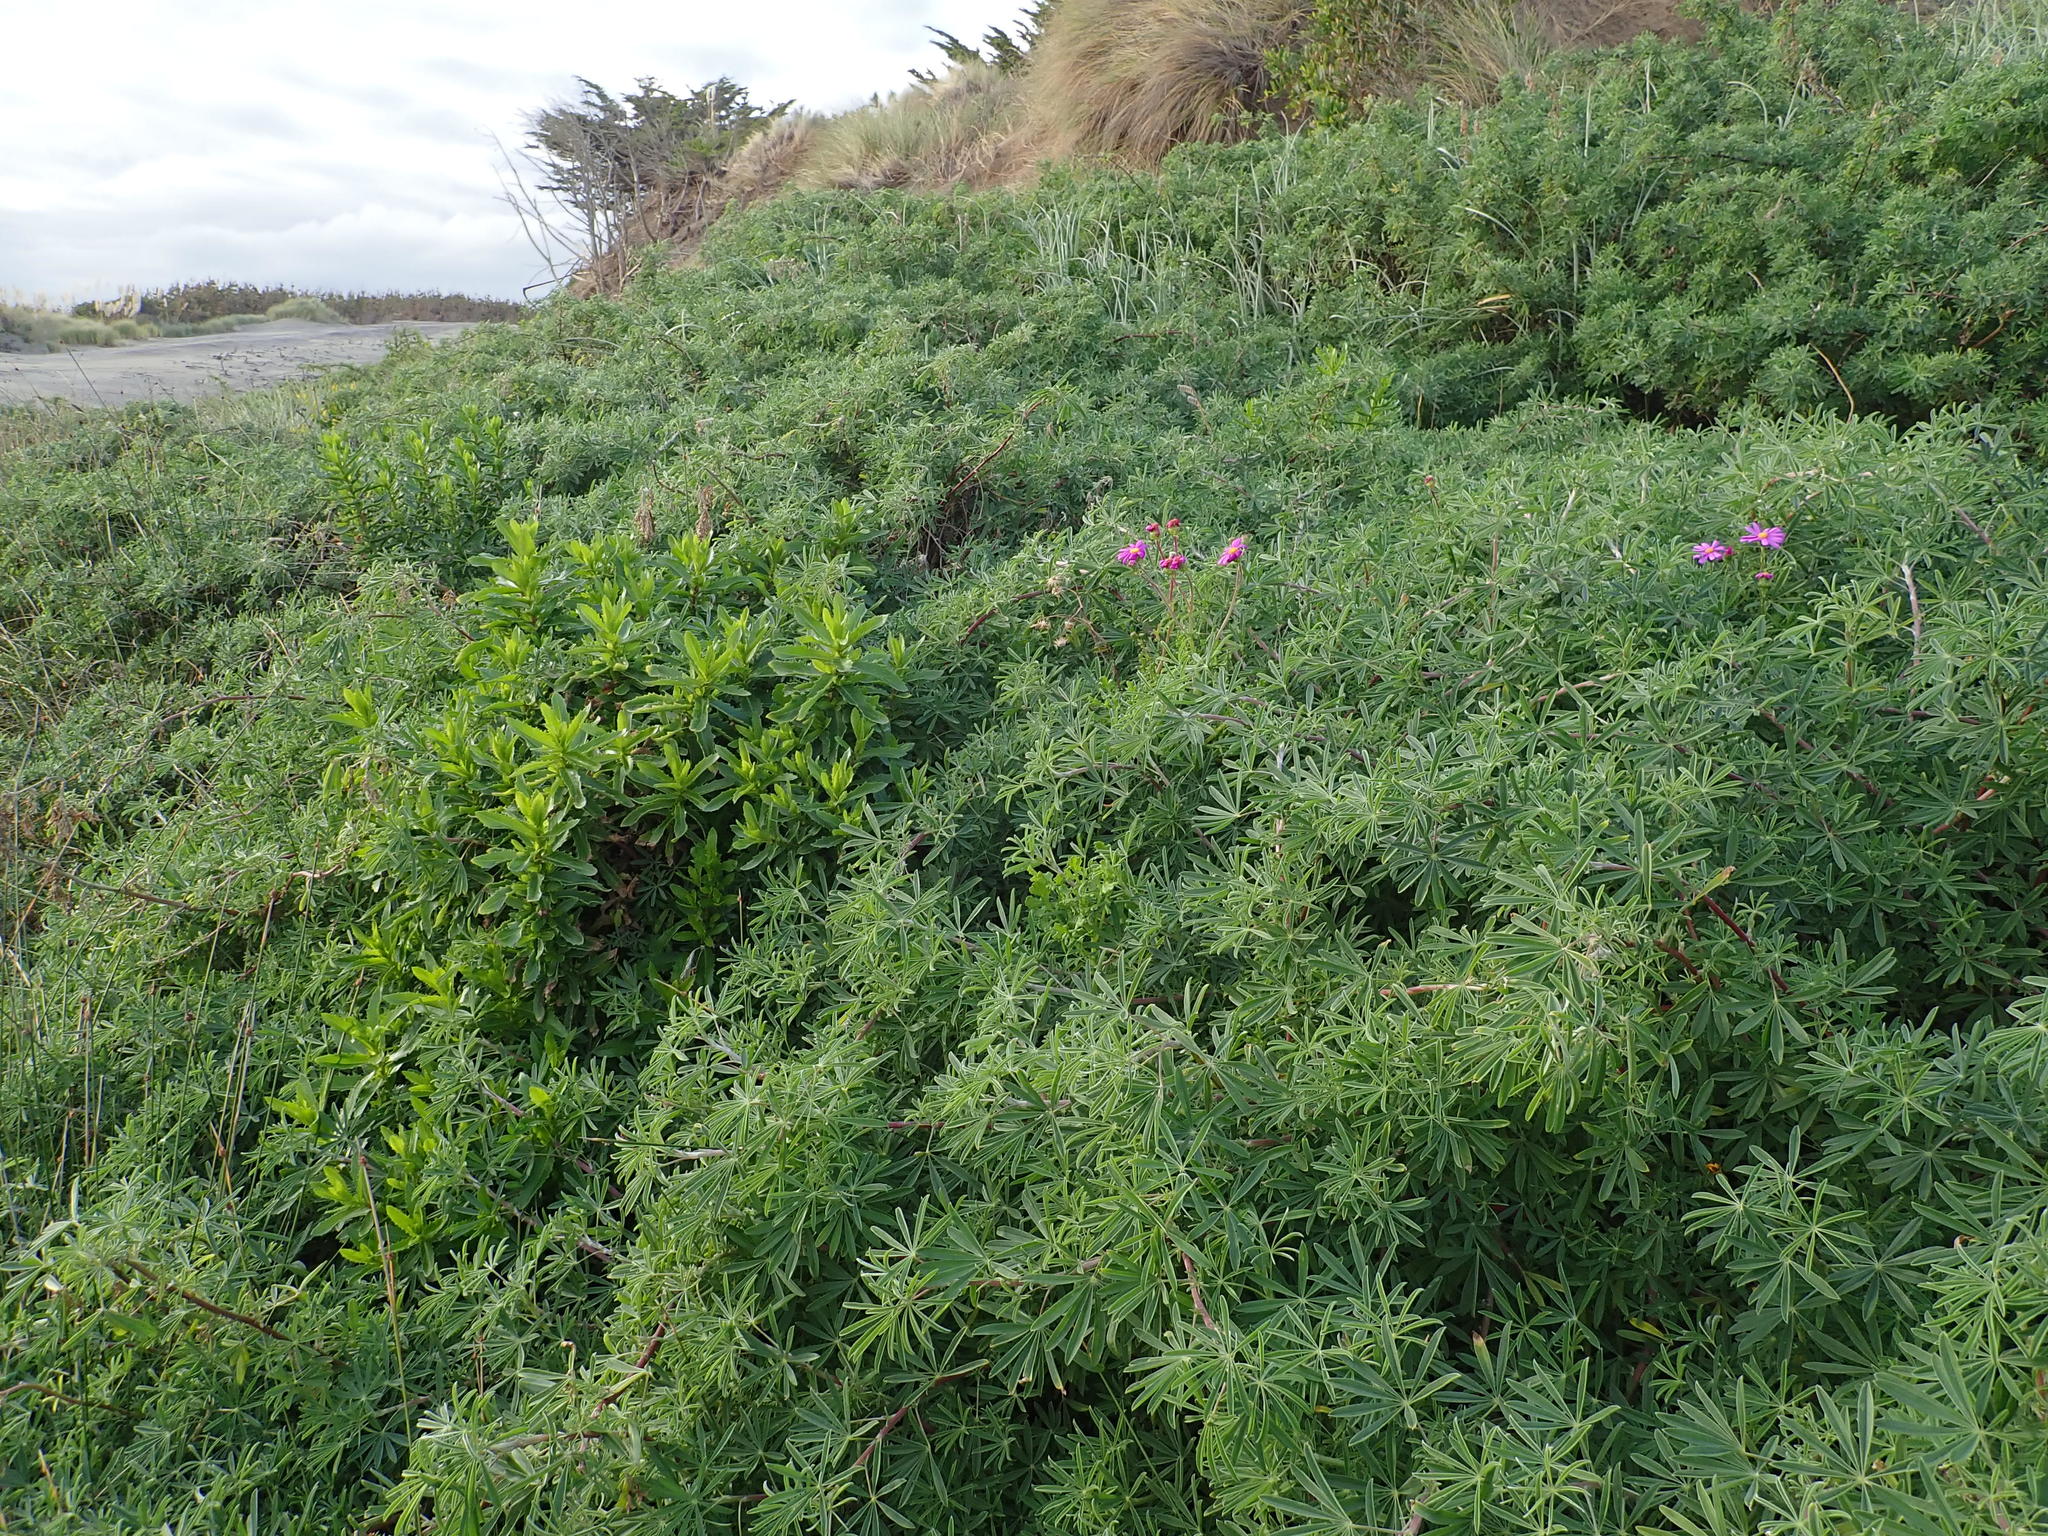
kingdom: Plantae
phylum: Tracheophyta
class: Magnoliopsida
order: Asterales
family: Asteraceae
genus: Senecio
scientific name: Senecio glastifolius
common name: Woad-leaved ragwort
